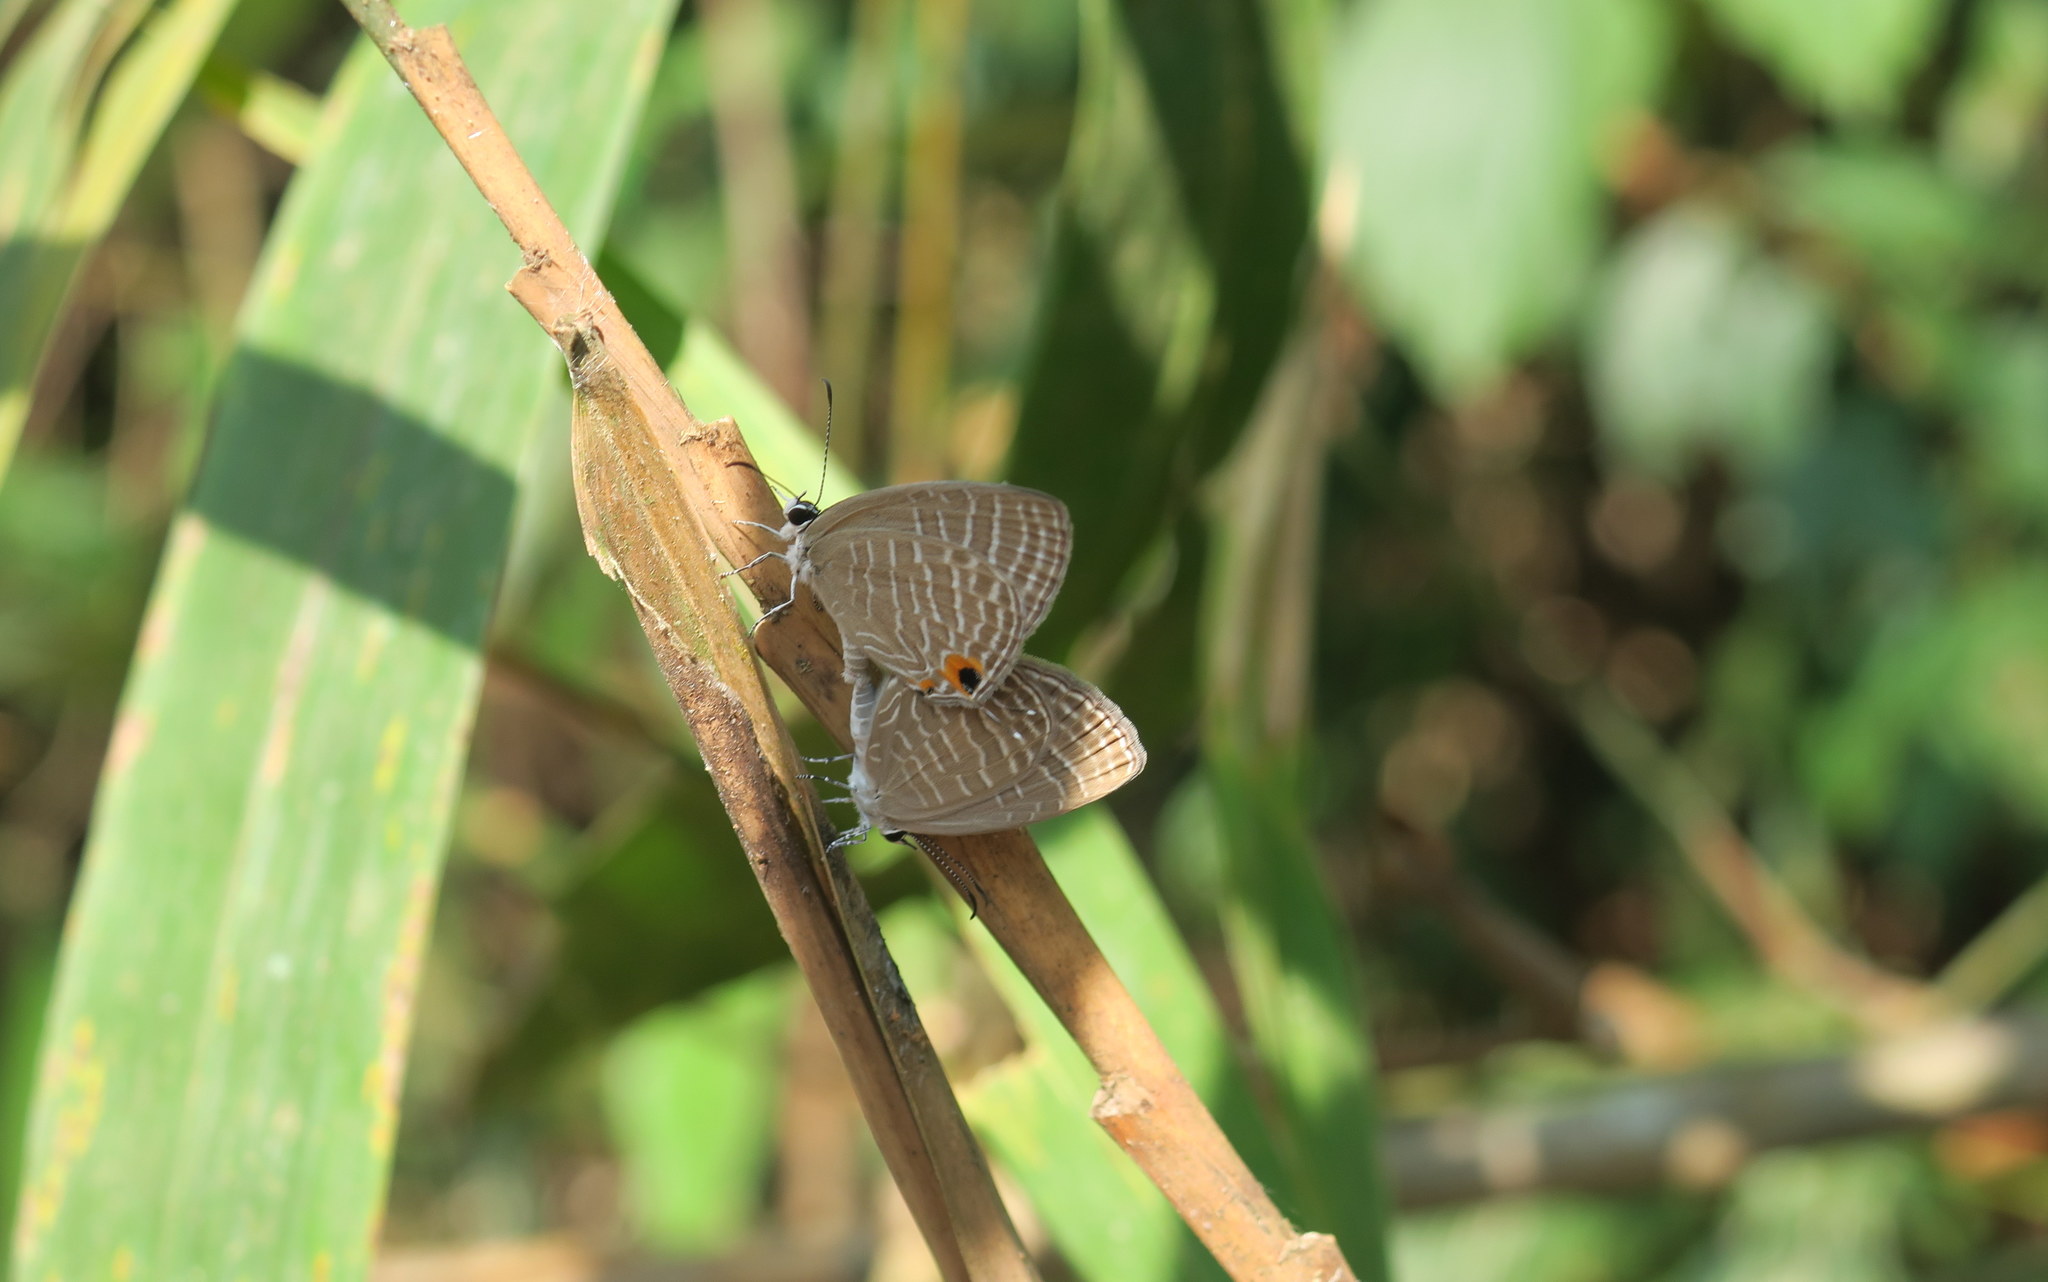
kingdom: Animalia
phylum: Arthropoda
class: Insecta
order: Lepidoptera
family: Lycaenidae
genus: Jamides
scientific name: Jamides celeno
